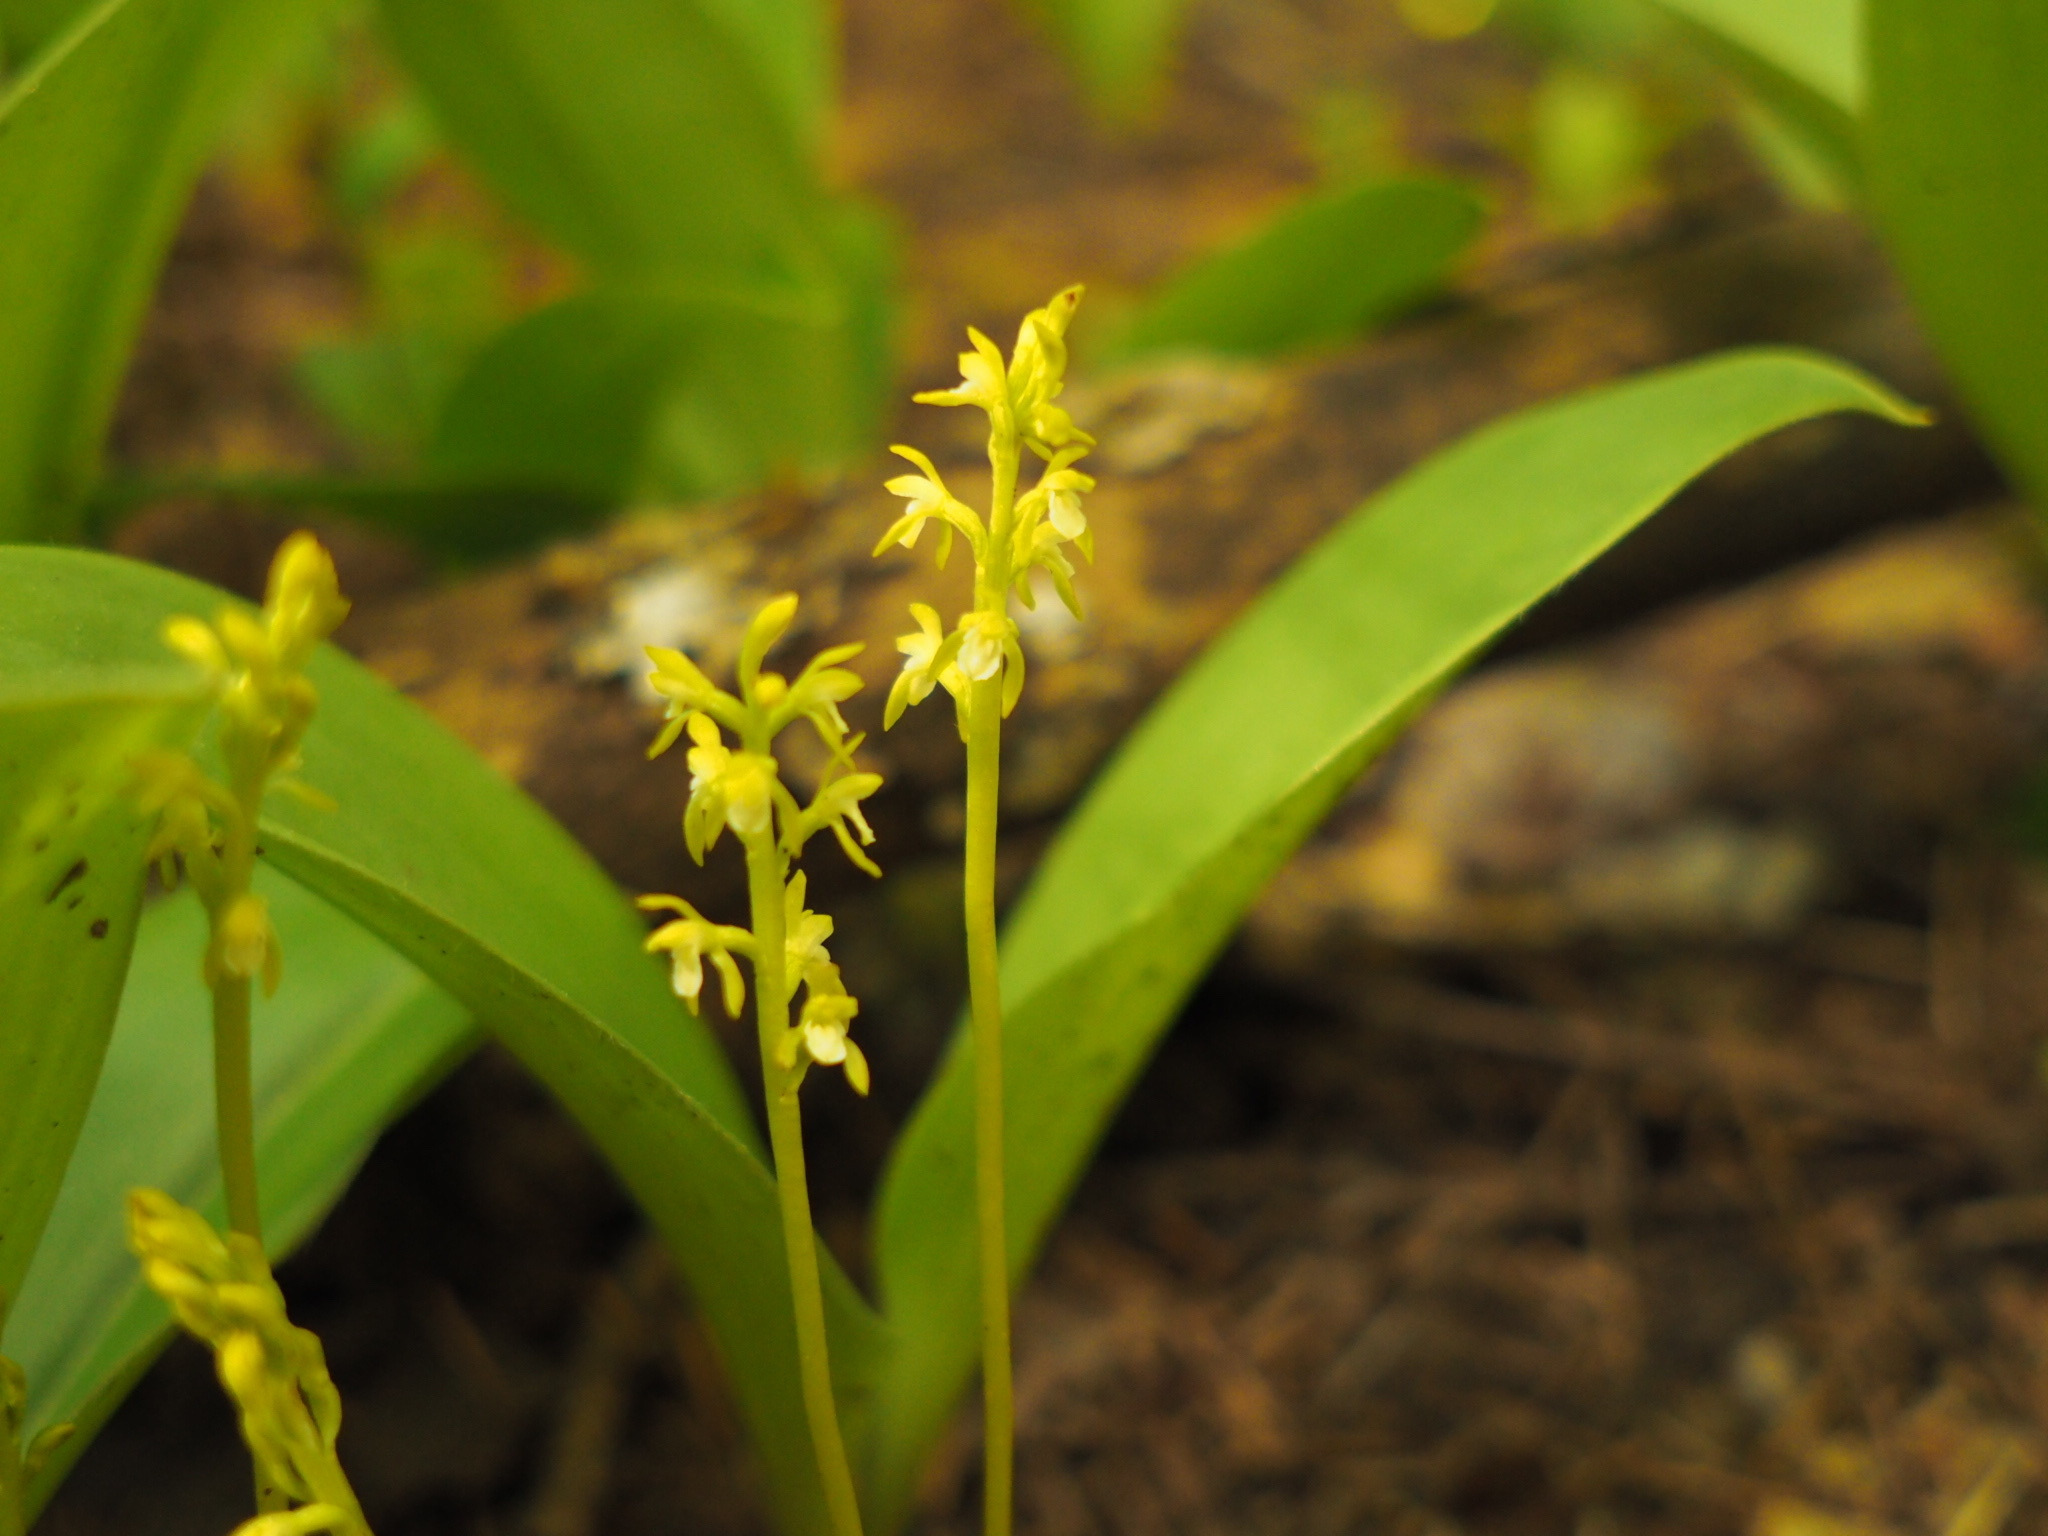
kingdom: Plantae
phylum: Tracheophyta
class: Liliopsida
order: Asparagales
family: Orchidaceae
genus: Corallorhiza
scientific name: Corallorhiza trifida
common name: Yellow coralroot
